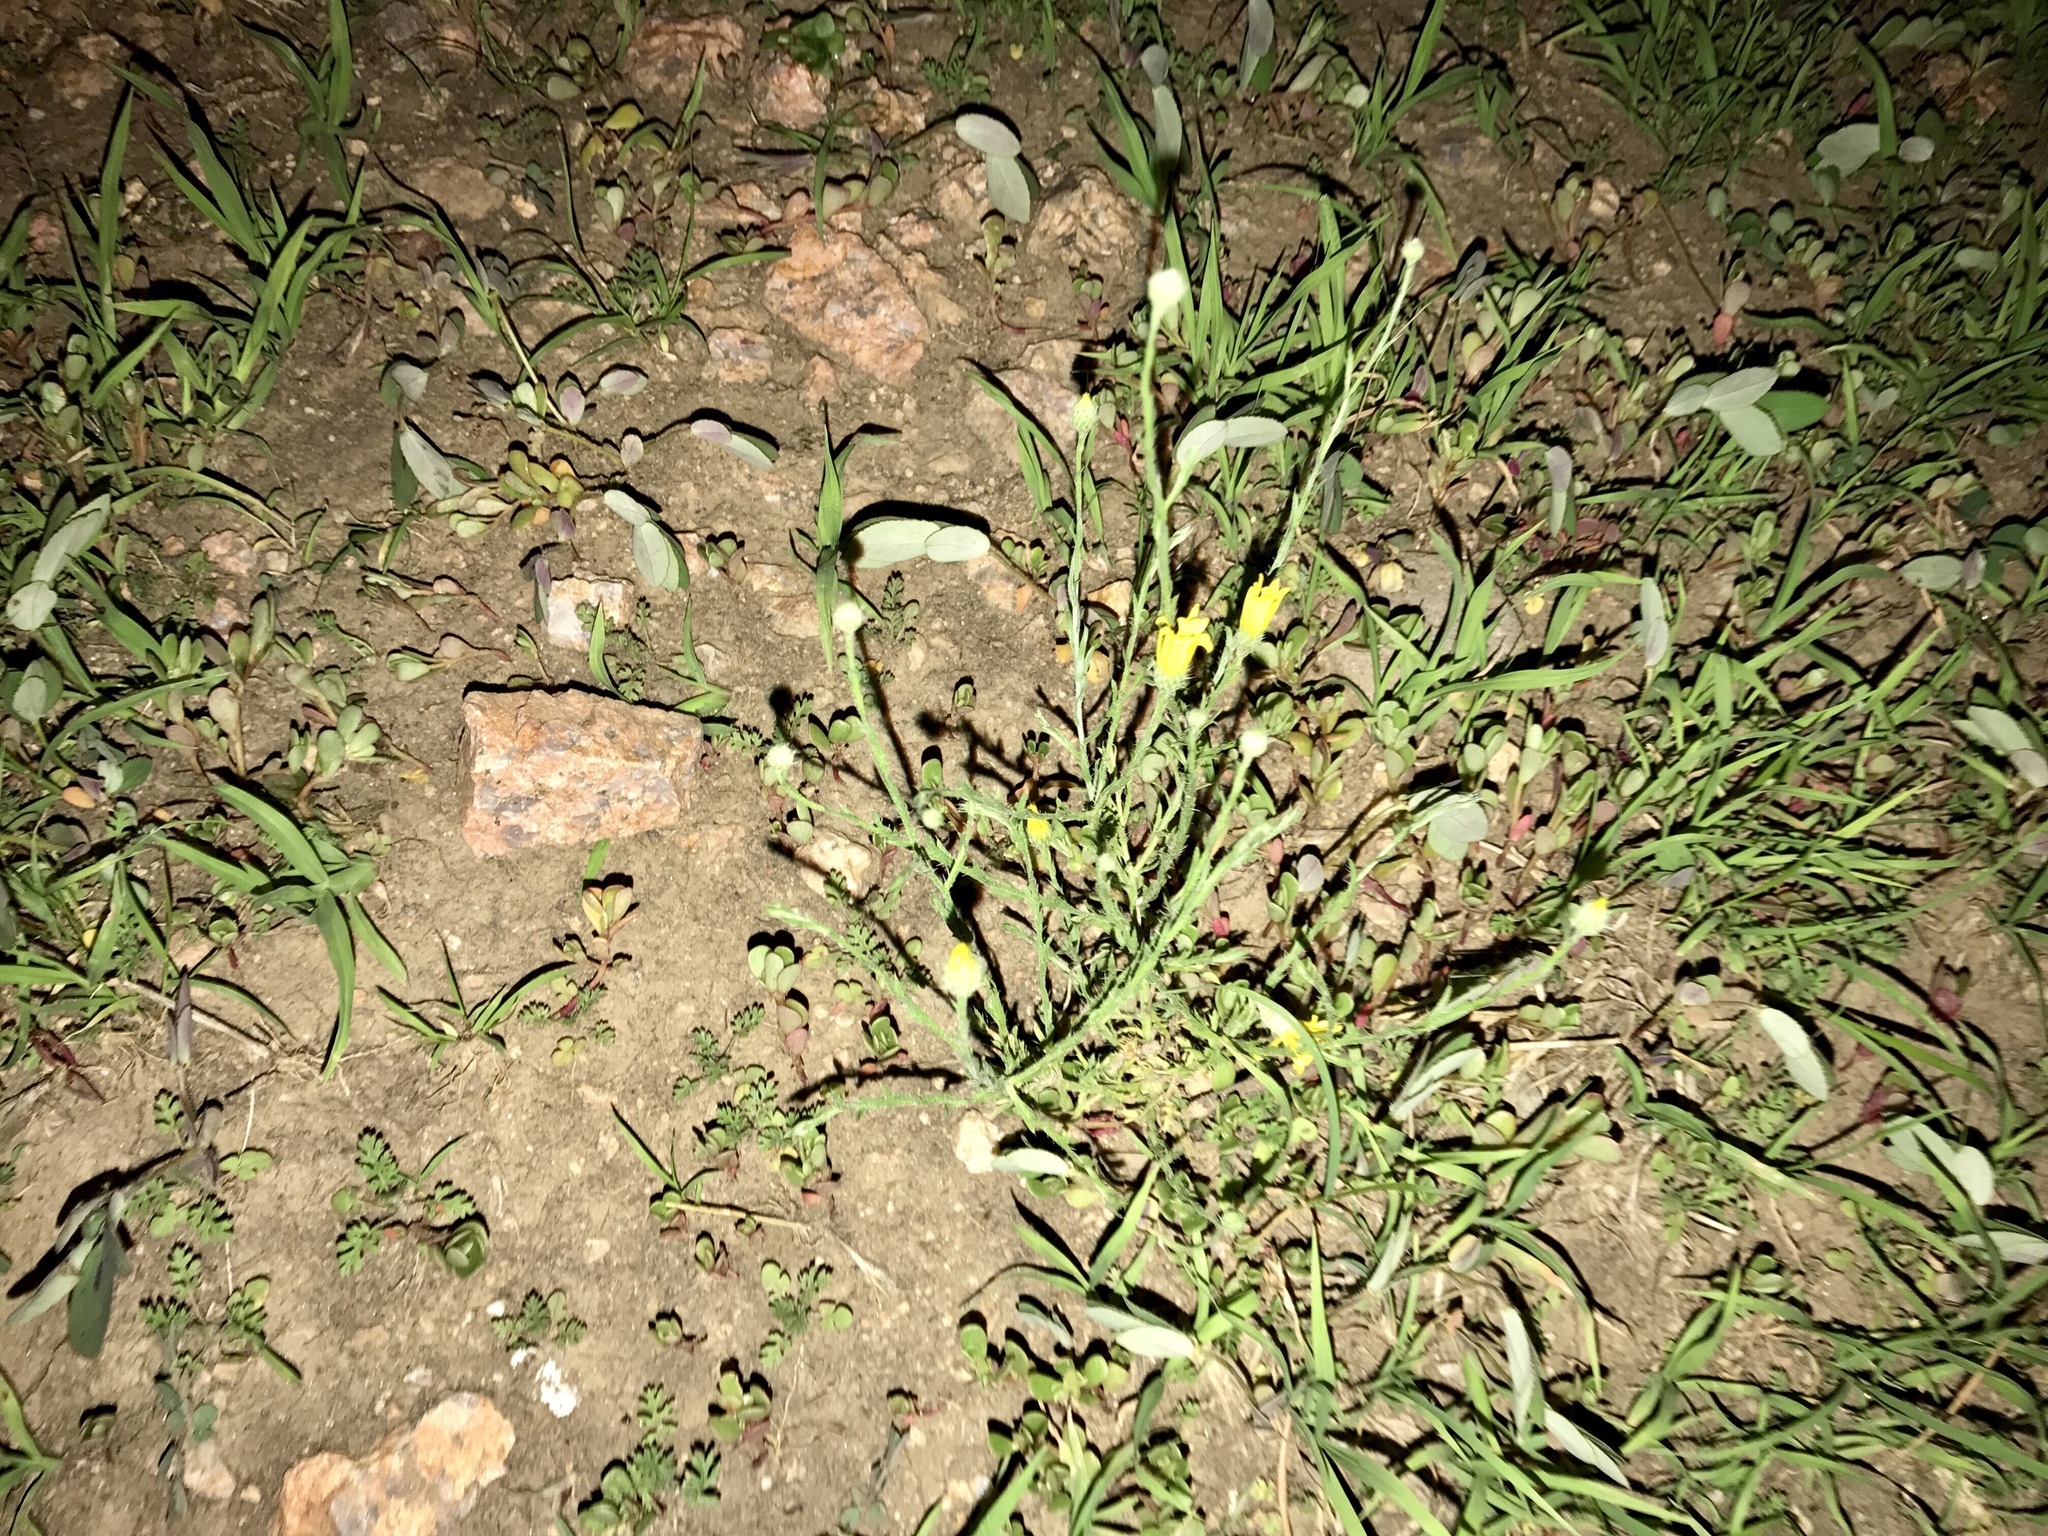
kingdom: Plantae
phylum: Tracheophyta
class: Magnoliopsida
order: Asterales
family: Asteraceae
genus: Xanthisma
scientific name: Xanthisma gracile
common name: Slender goldenweed
